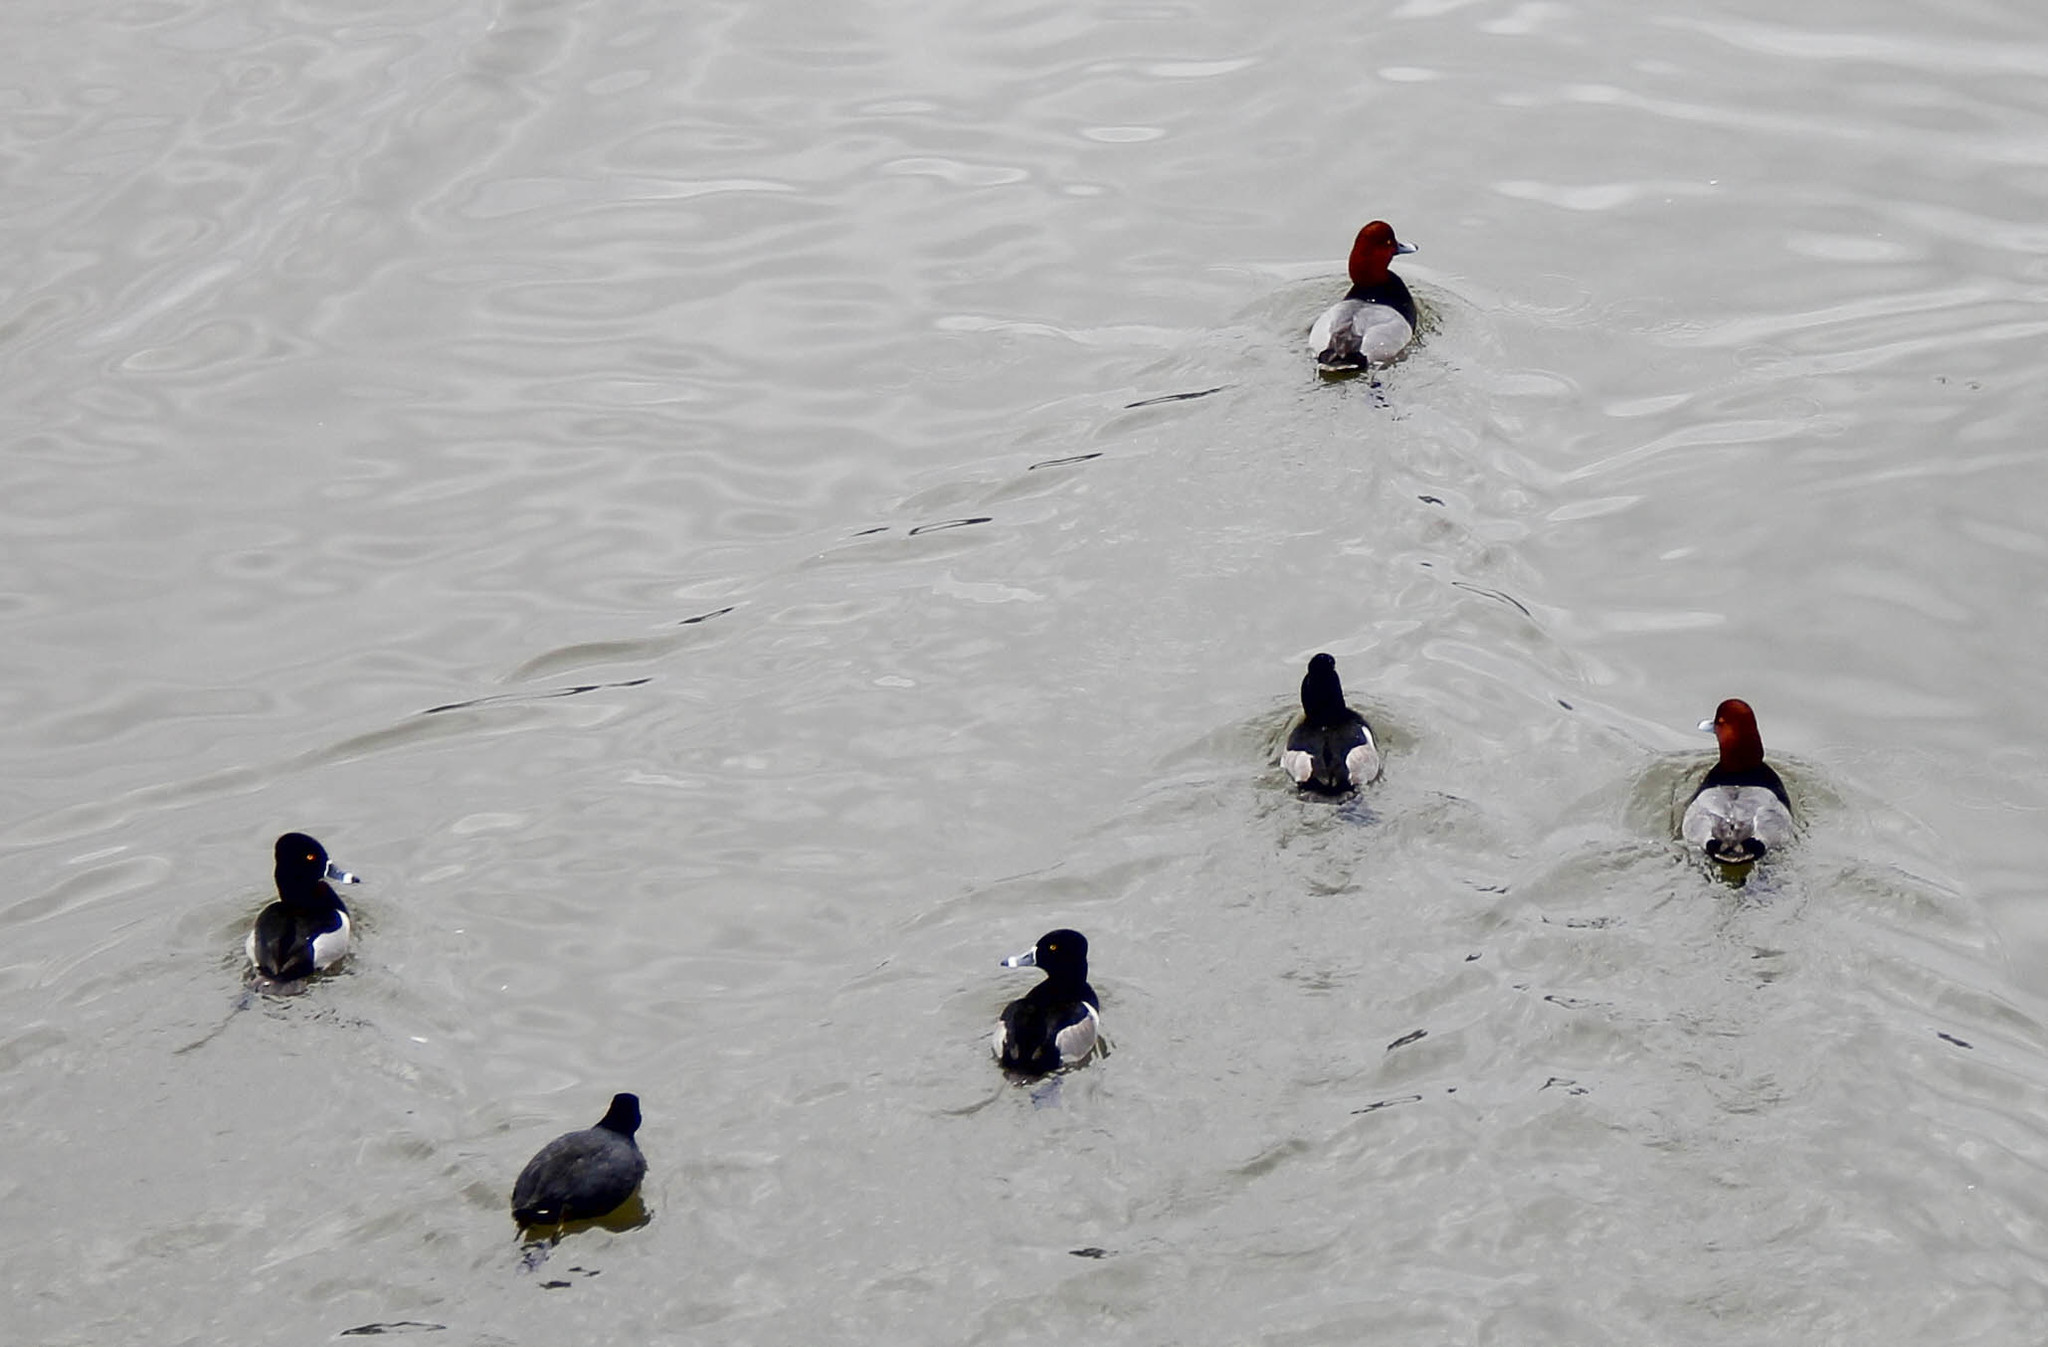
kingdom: Animalia
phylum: Chordata
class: Aves
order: Anseriformes
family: Anatidae
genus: Aythya
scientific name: Aythya americana
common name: Redhead
